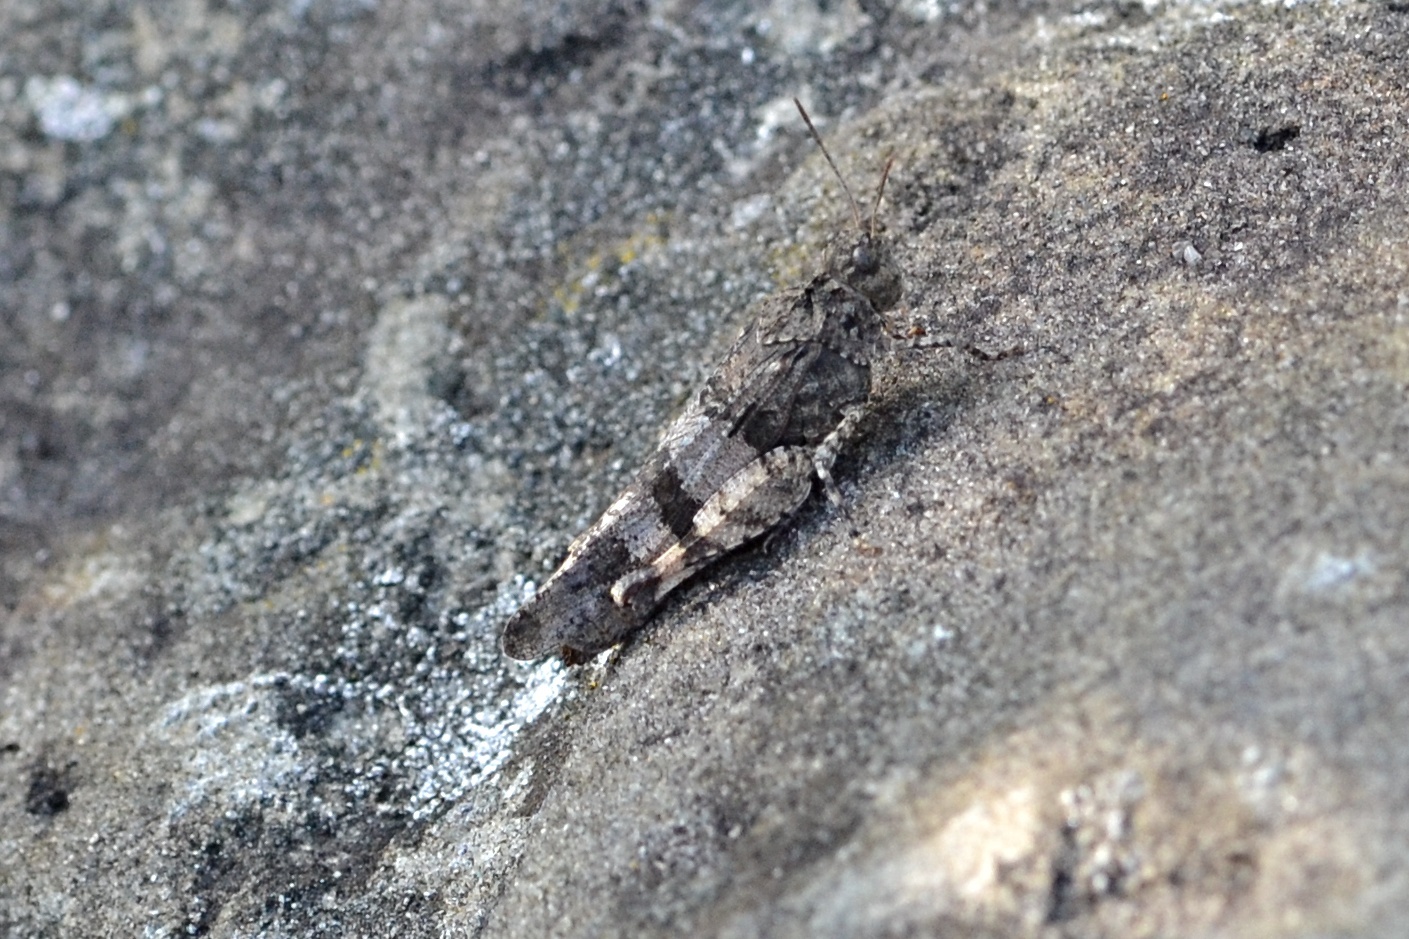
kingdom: Animalia
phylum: Arthropoda
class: Insecta
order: Orthoptera
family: Acrididae
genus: Oedipoda
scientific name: Oedipoda caerulescens
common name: Blue-winged grasshopper
